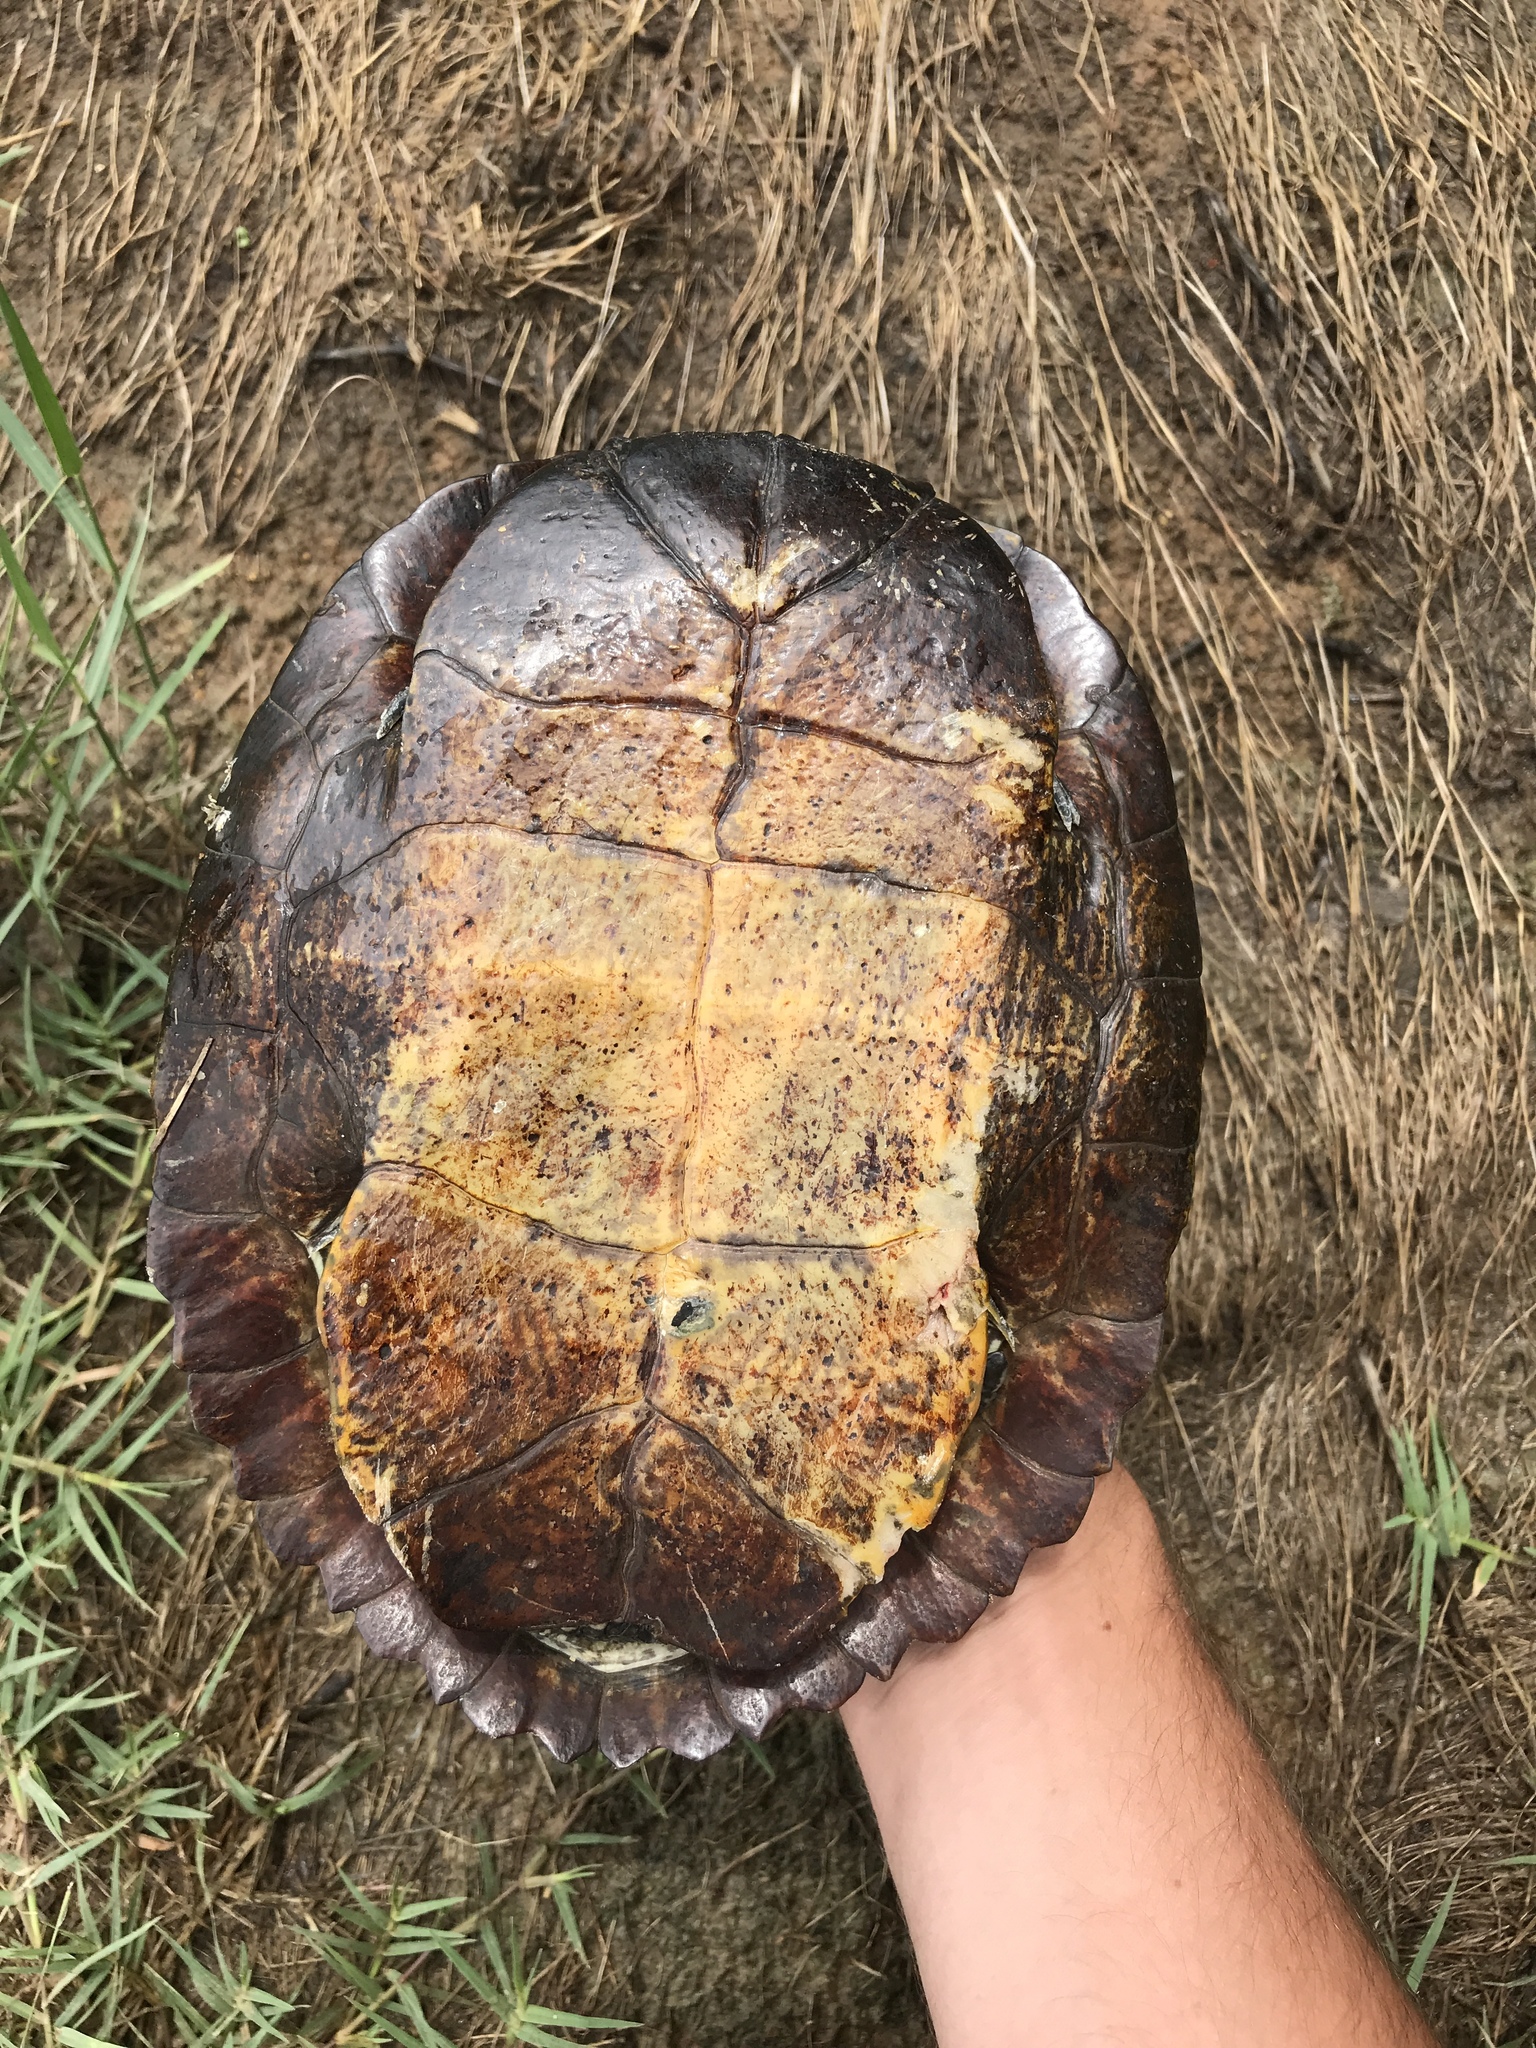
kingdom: Animalia
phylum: Chordata
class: Testudines
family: Emydidae
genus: Trachemys
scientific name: Trachemys scripta
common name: Slider
